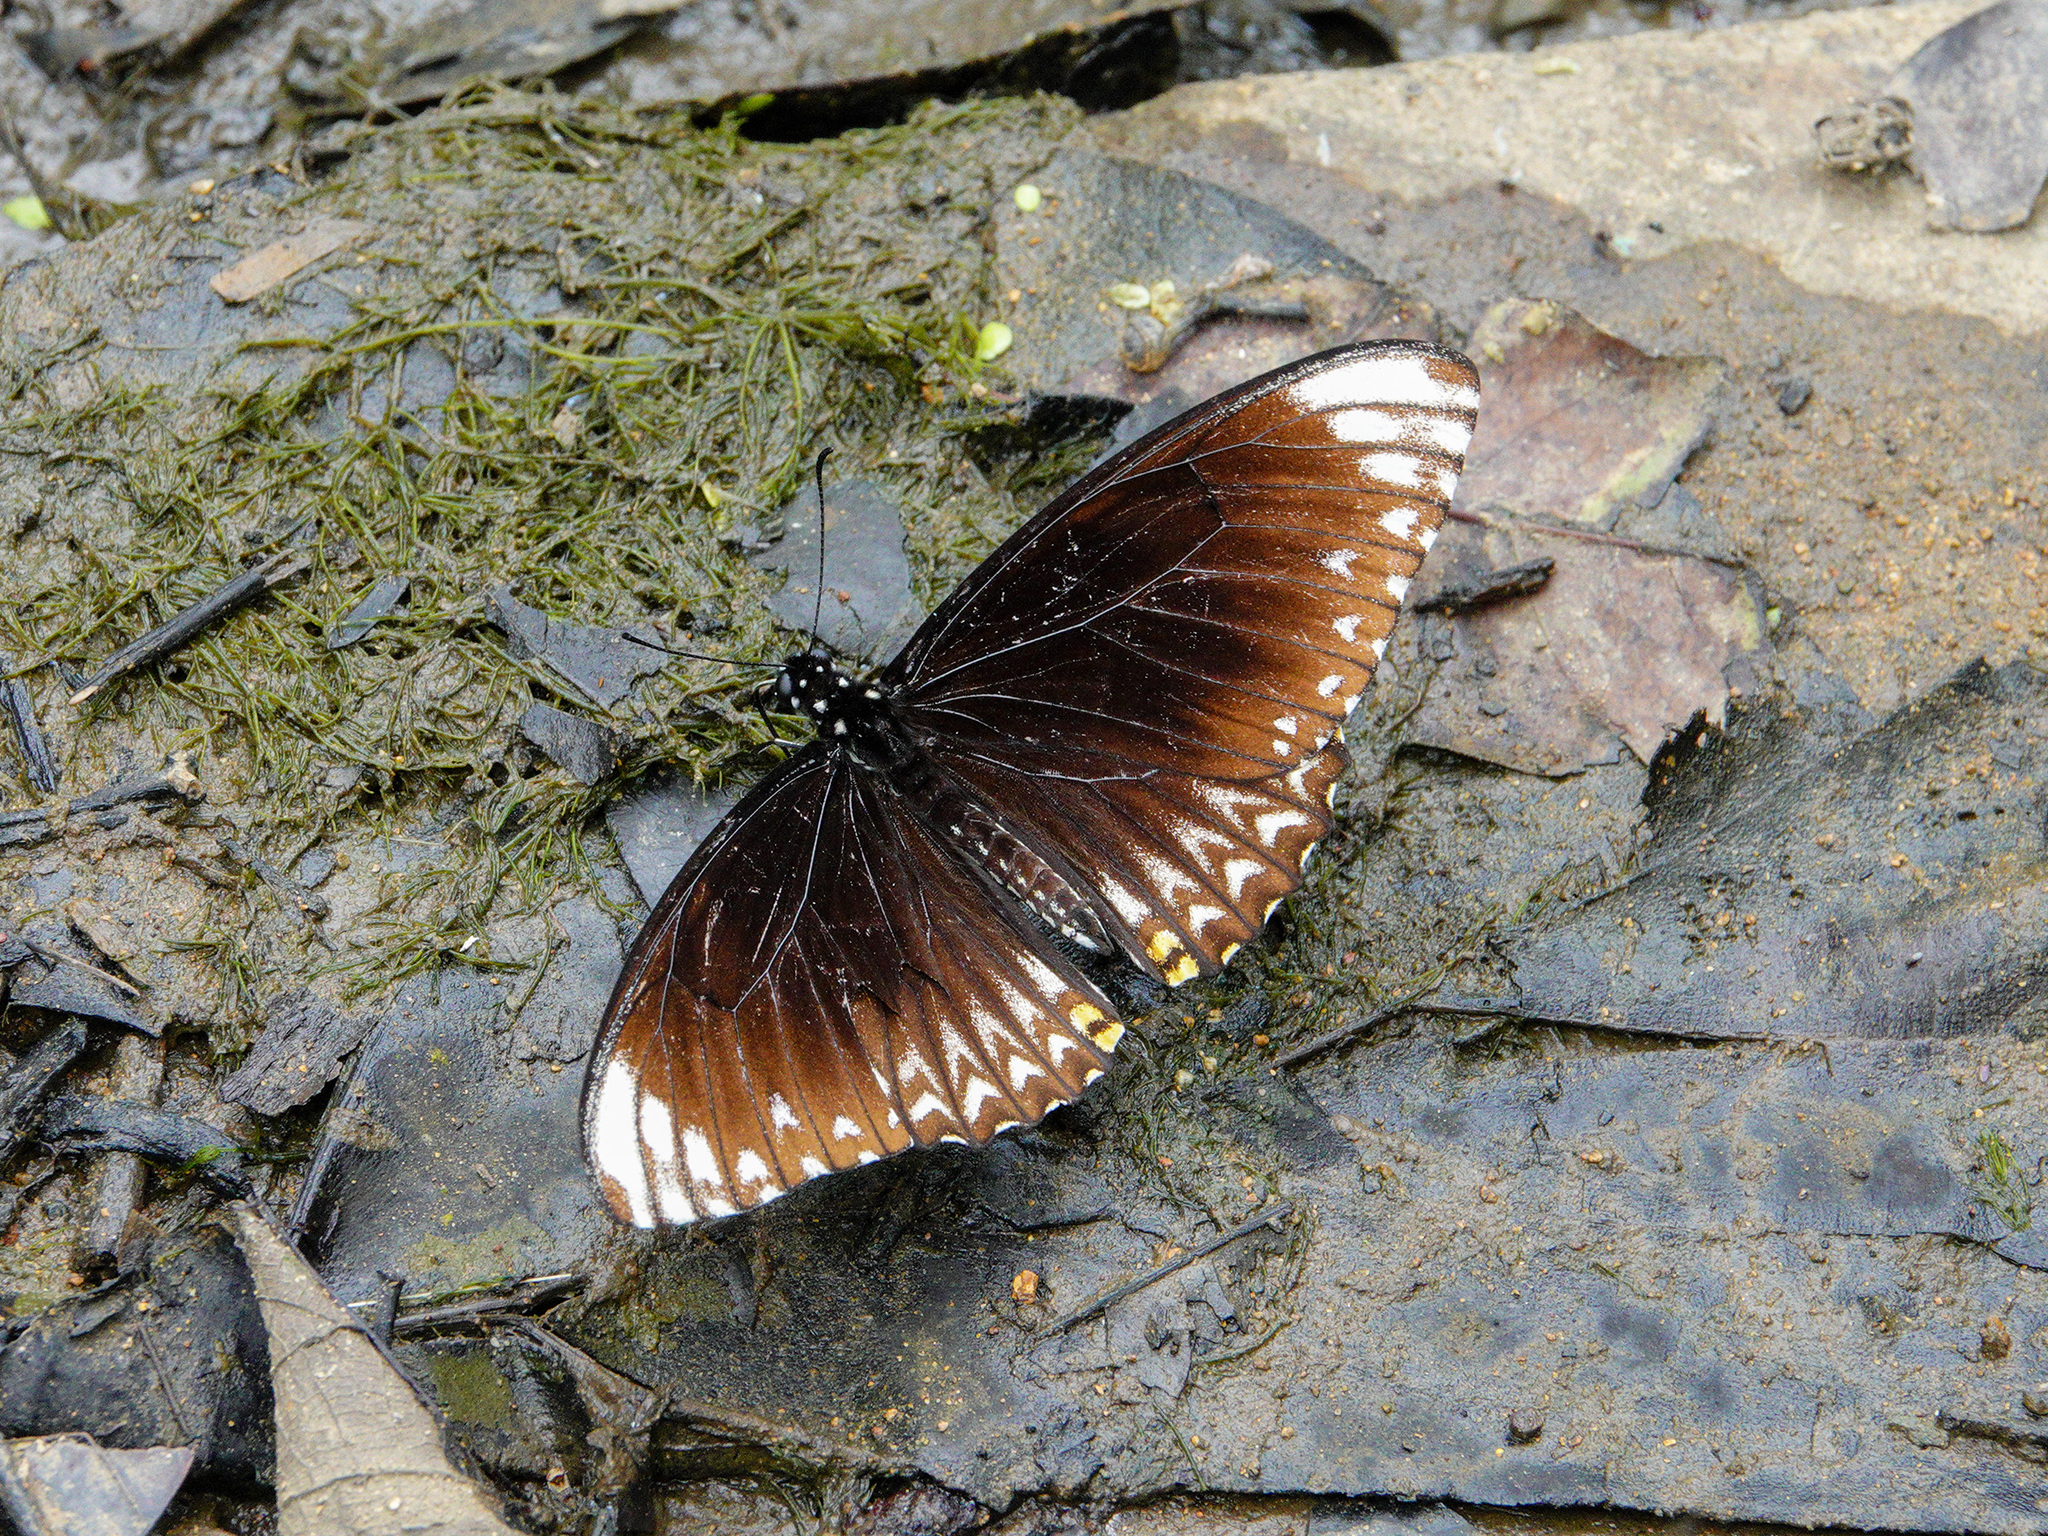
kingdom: Animalia
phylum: Arthropoda
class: Insecta
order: Lepidoptera
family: Papilionidae
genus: Chilasa
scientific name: Chilasa clytia
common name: Common mime
